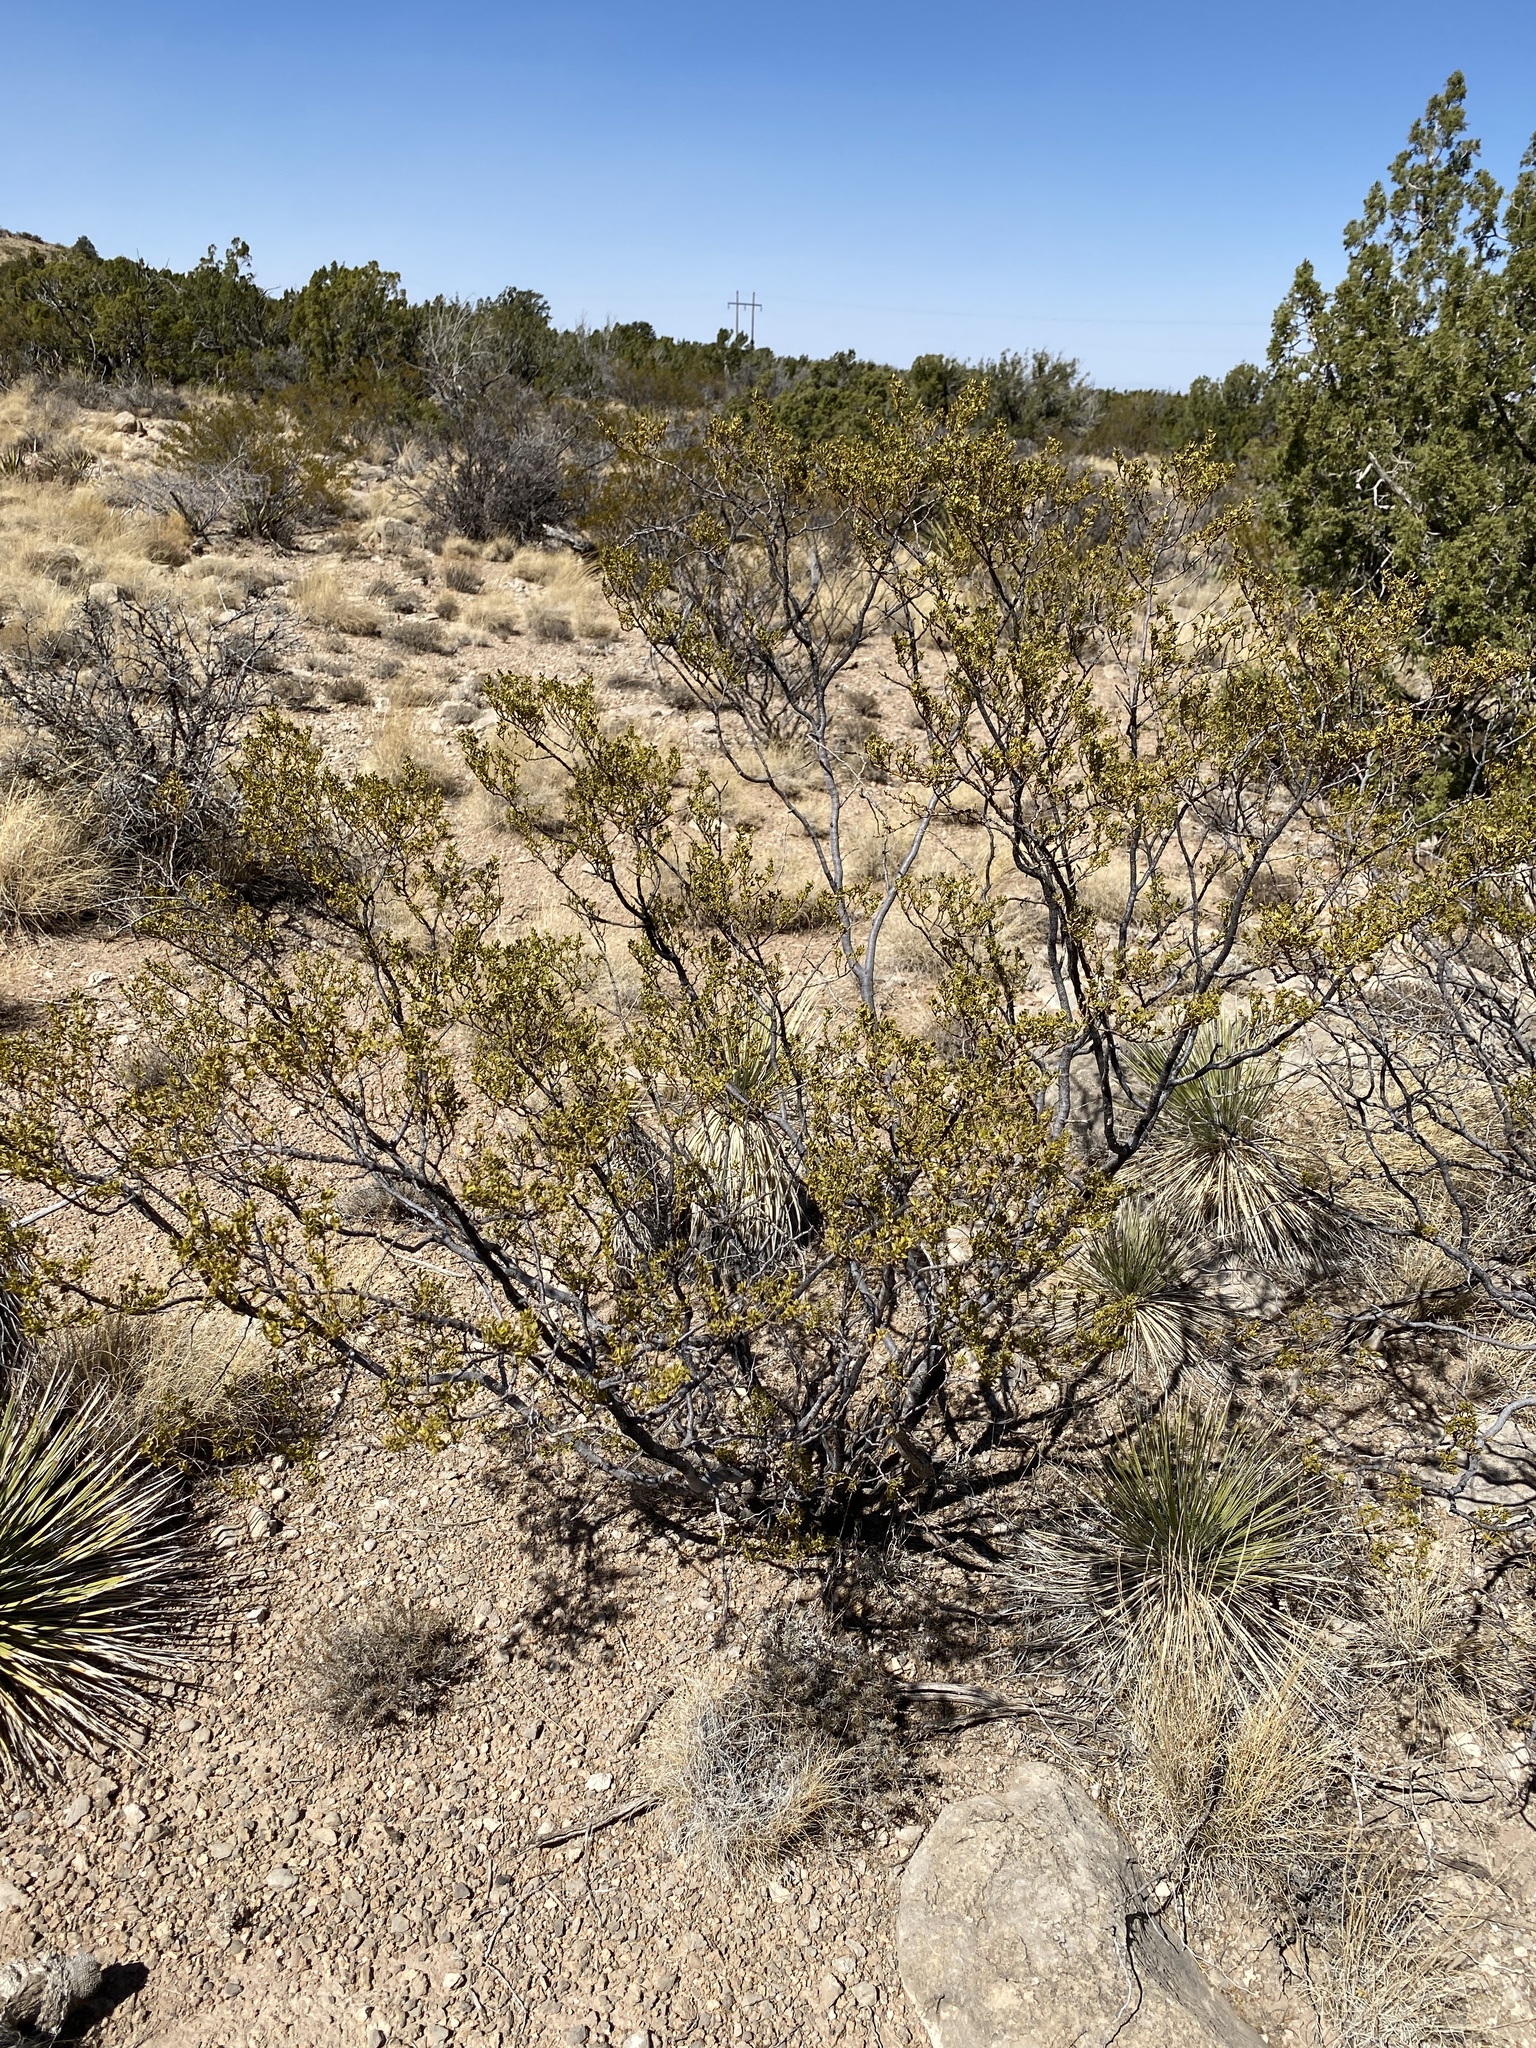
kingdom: Plantae
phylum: Tracheophyta
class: Magnoliopsida
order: Zygophyllales
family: Zygophyllaceae
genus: Larrea
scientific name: Larrea tridentata
